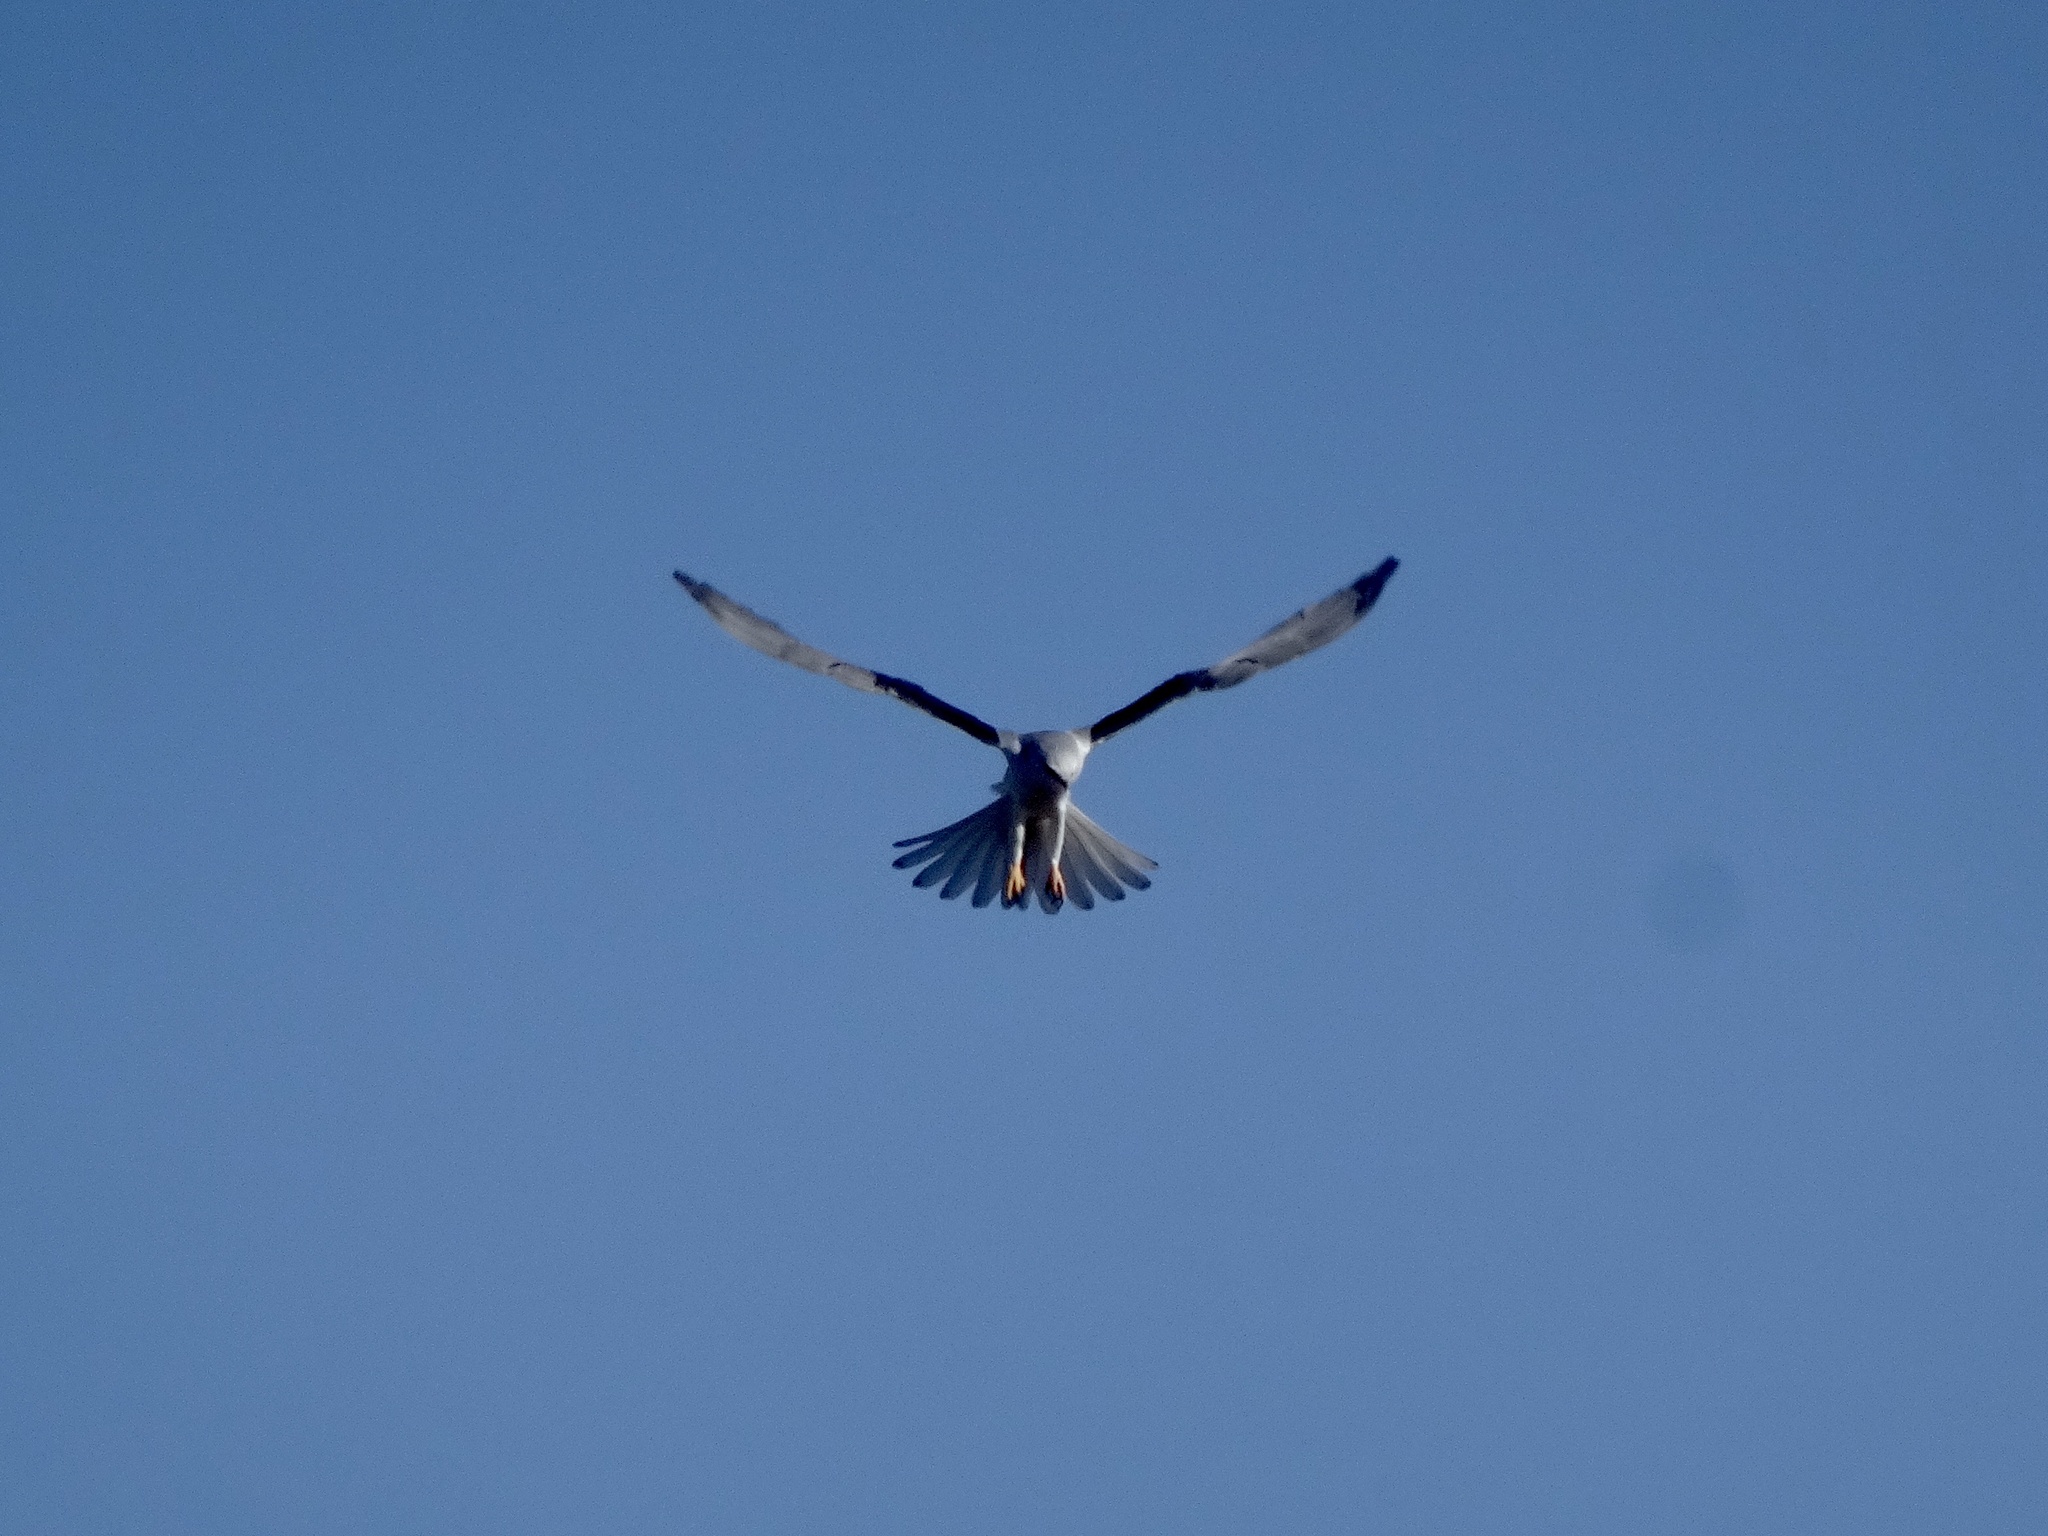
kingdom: Animalia
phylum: Chordata
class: Aves
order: Accipitriformes
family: Accipitridae
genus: Elanus
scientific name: Elanus leucurus
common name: White-tailed kite
